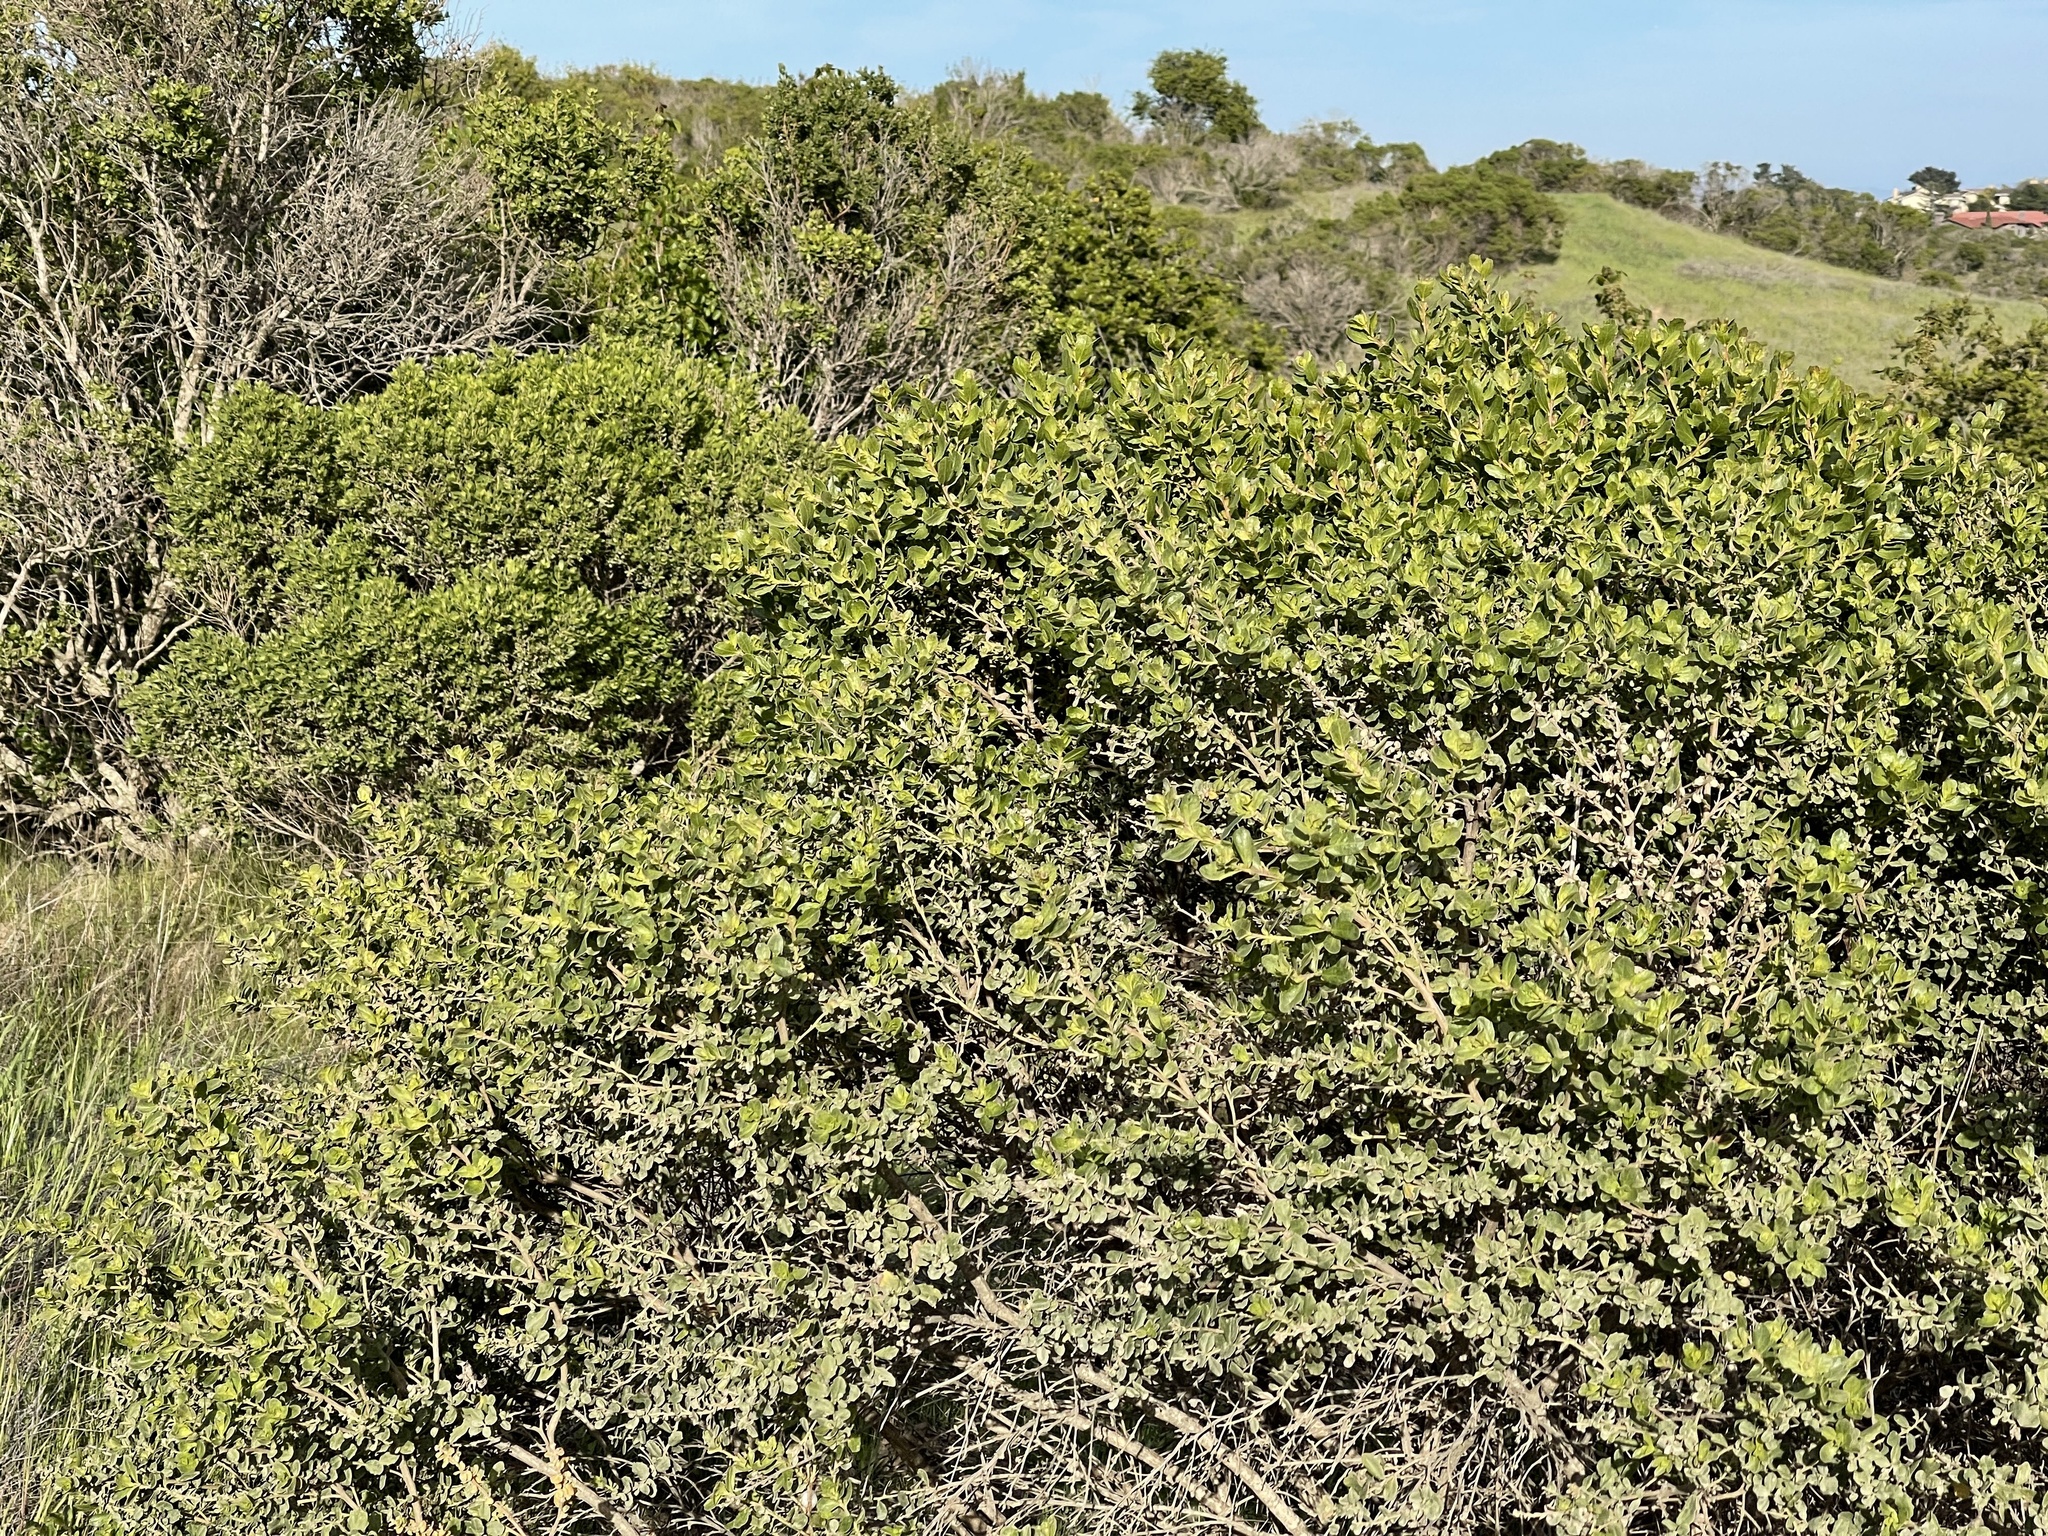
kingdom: Plantae
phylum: Tracheophyta
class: Magnoliopsida
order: Asterales
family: Asteraceae
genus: Baccharis
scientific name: Baccharis pilularis
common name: Coyotebrush
